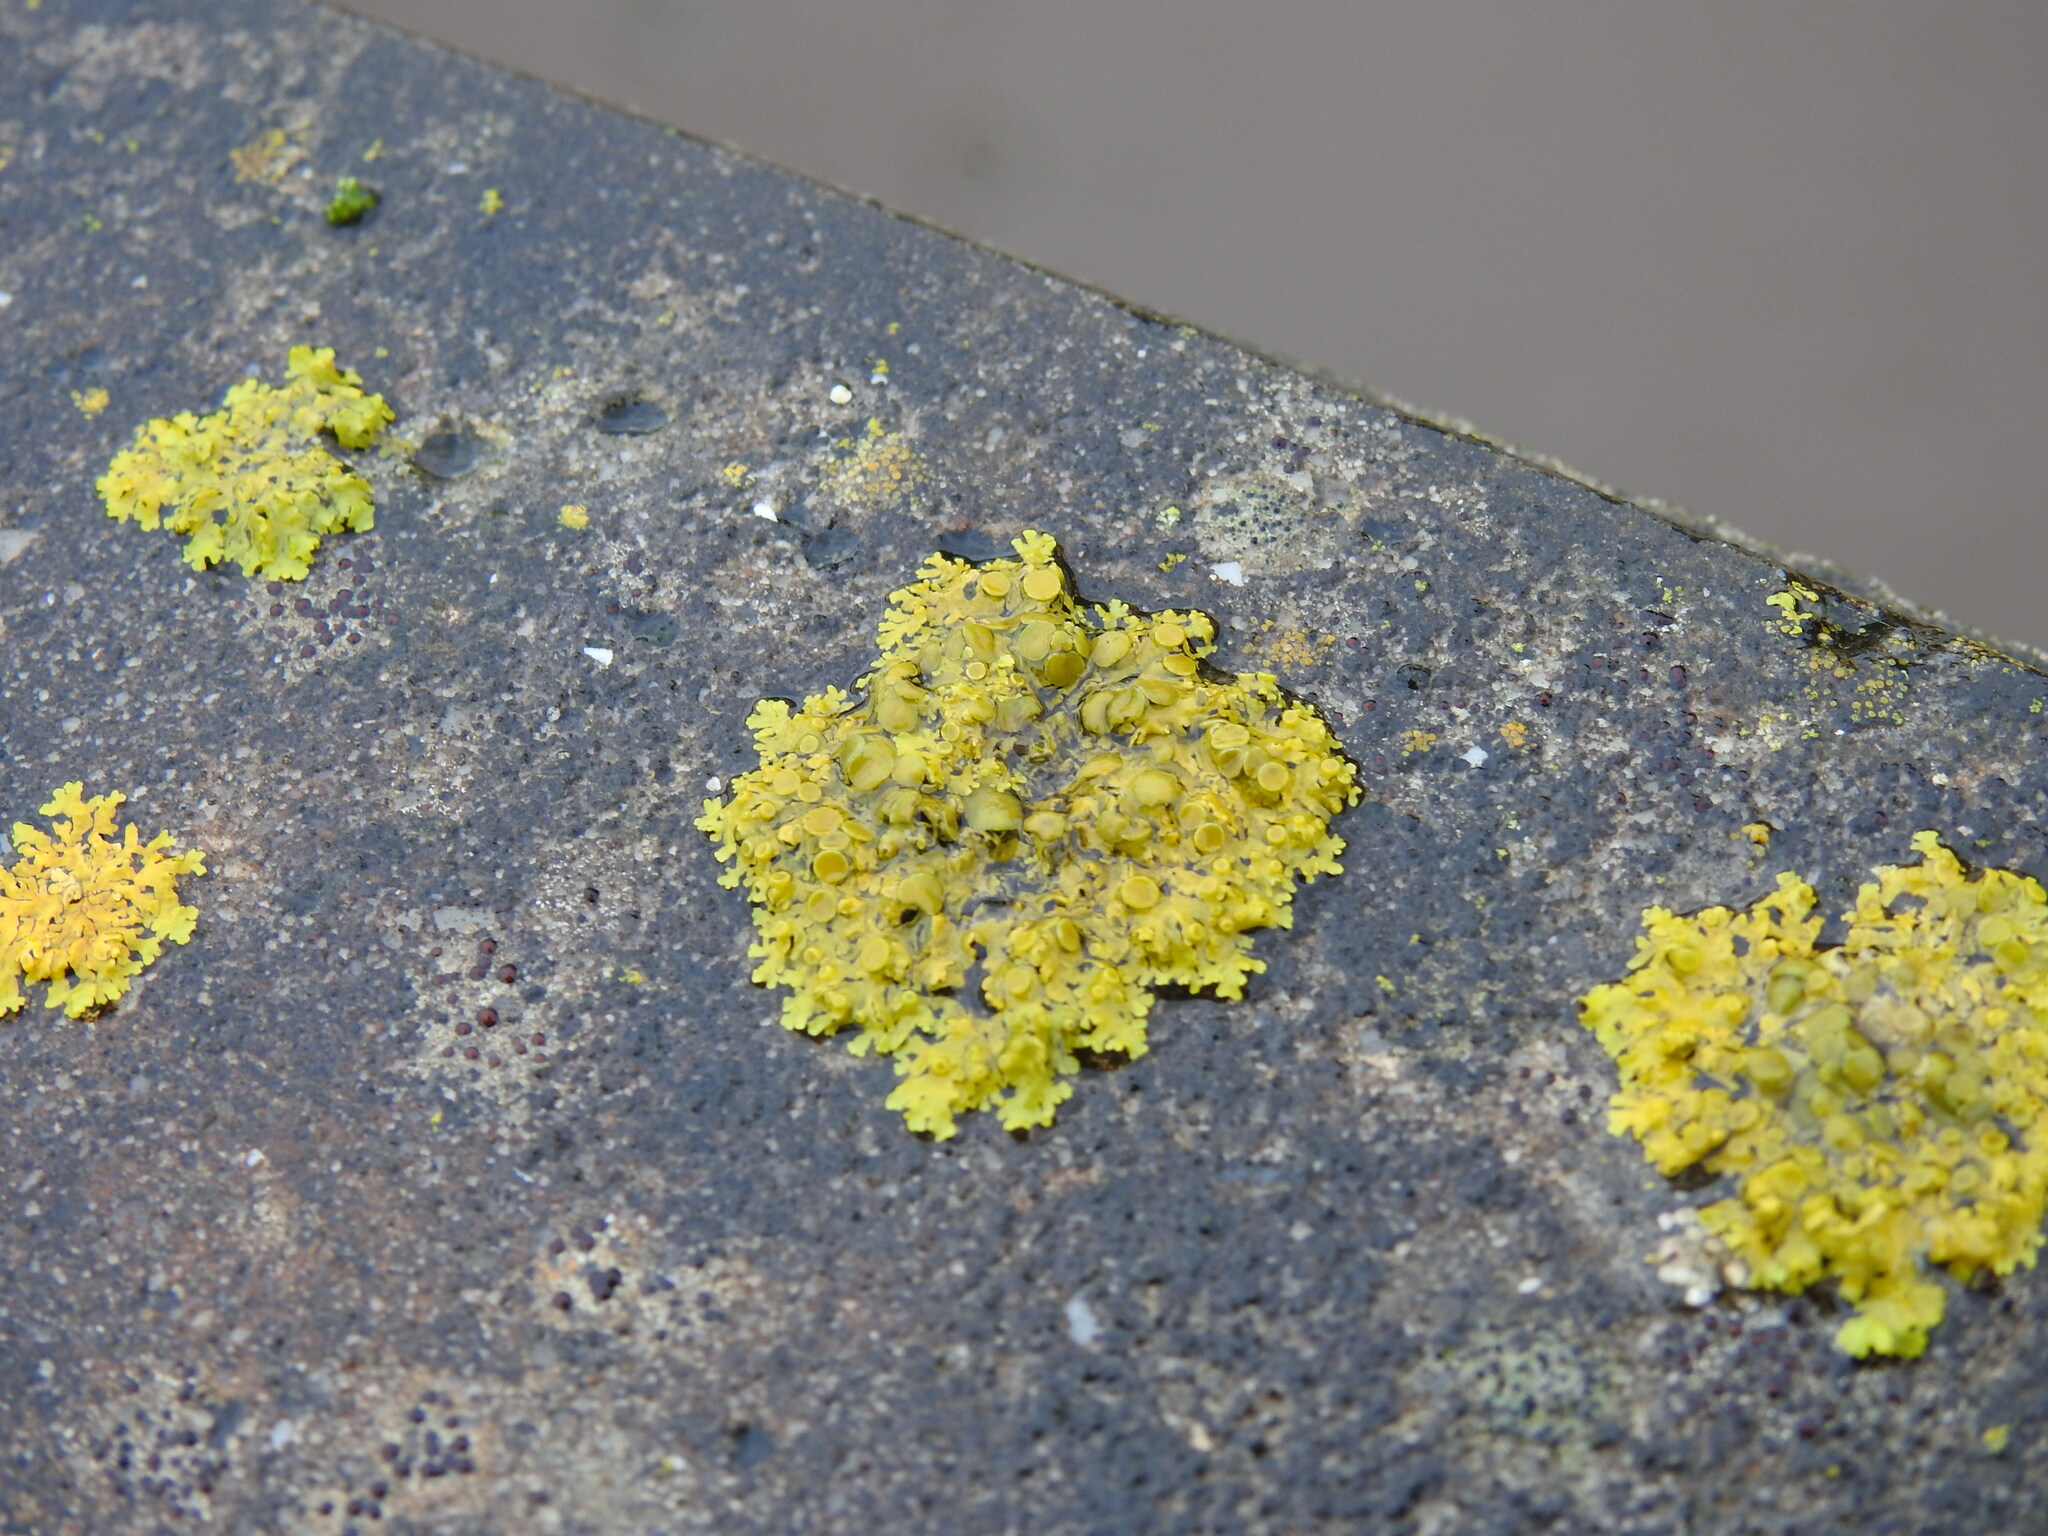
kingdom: Fungi
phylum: Ascomycota
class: Lecanoromycetes
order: Teloschistales
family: Teloschistaceae
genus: Xanthoria
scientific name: Xanthoria parietina
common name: Common orange lichen
